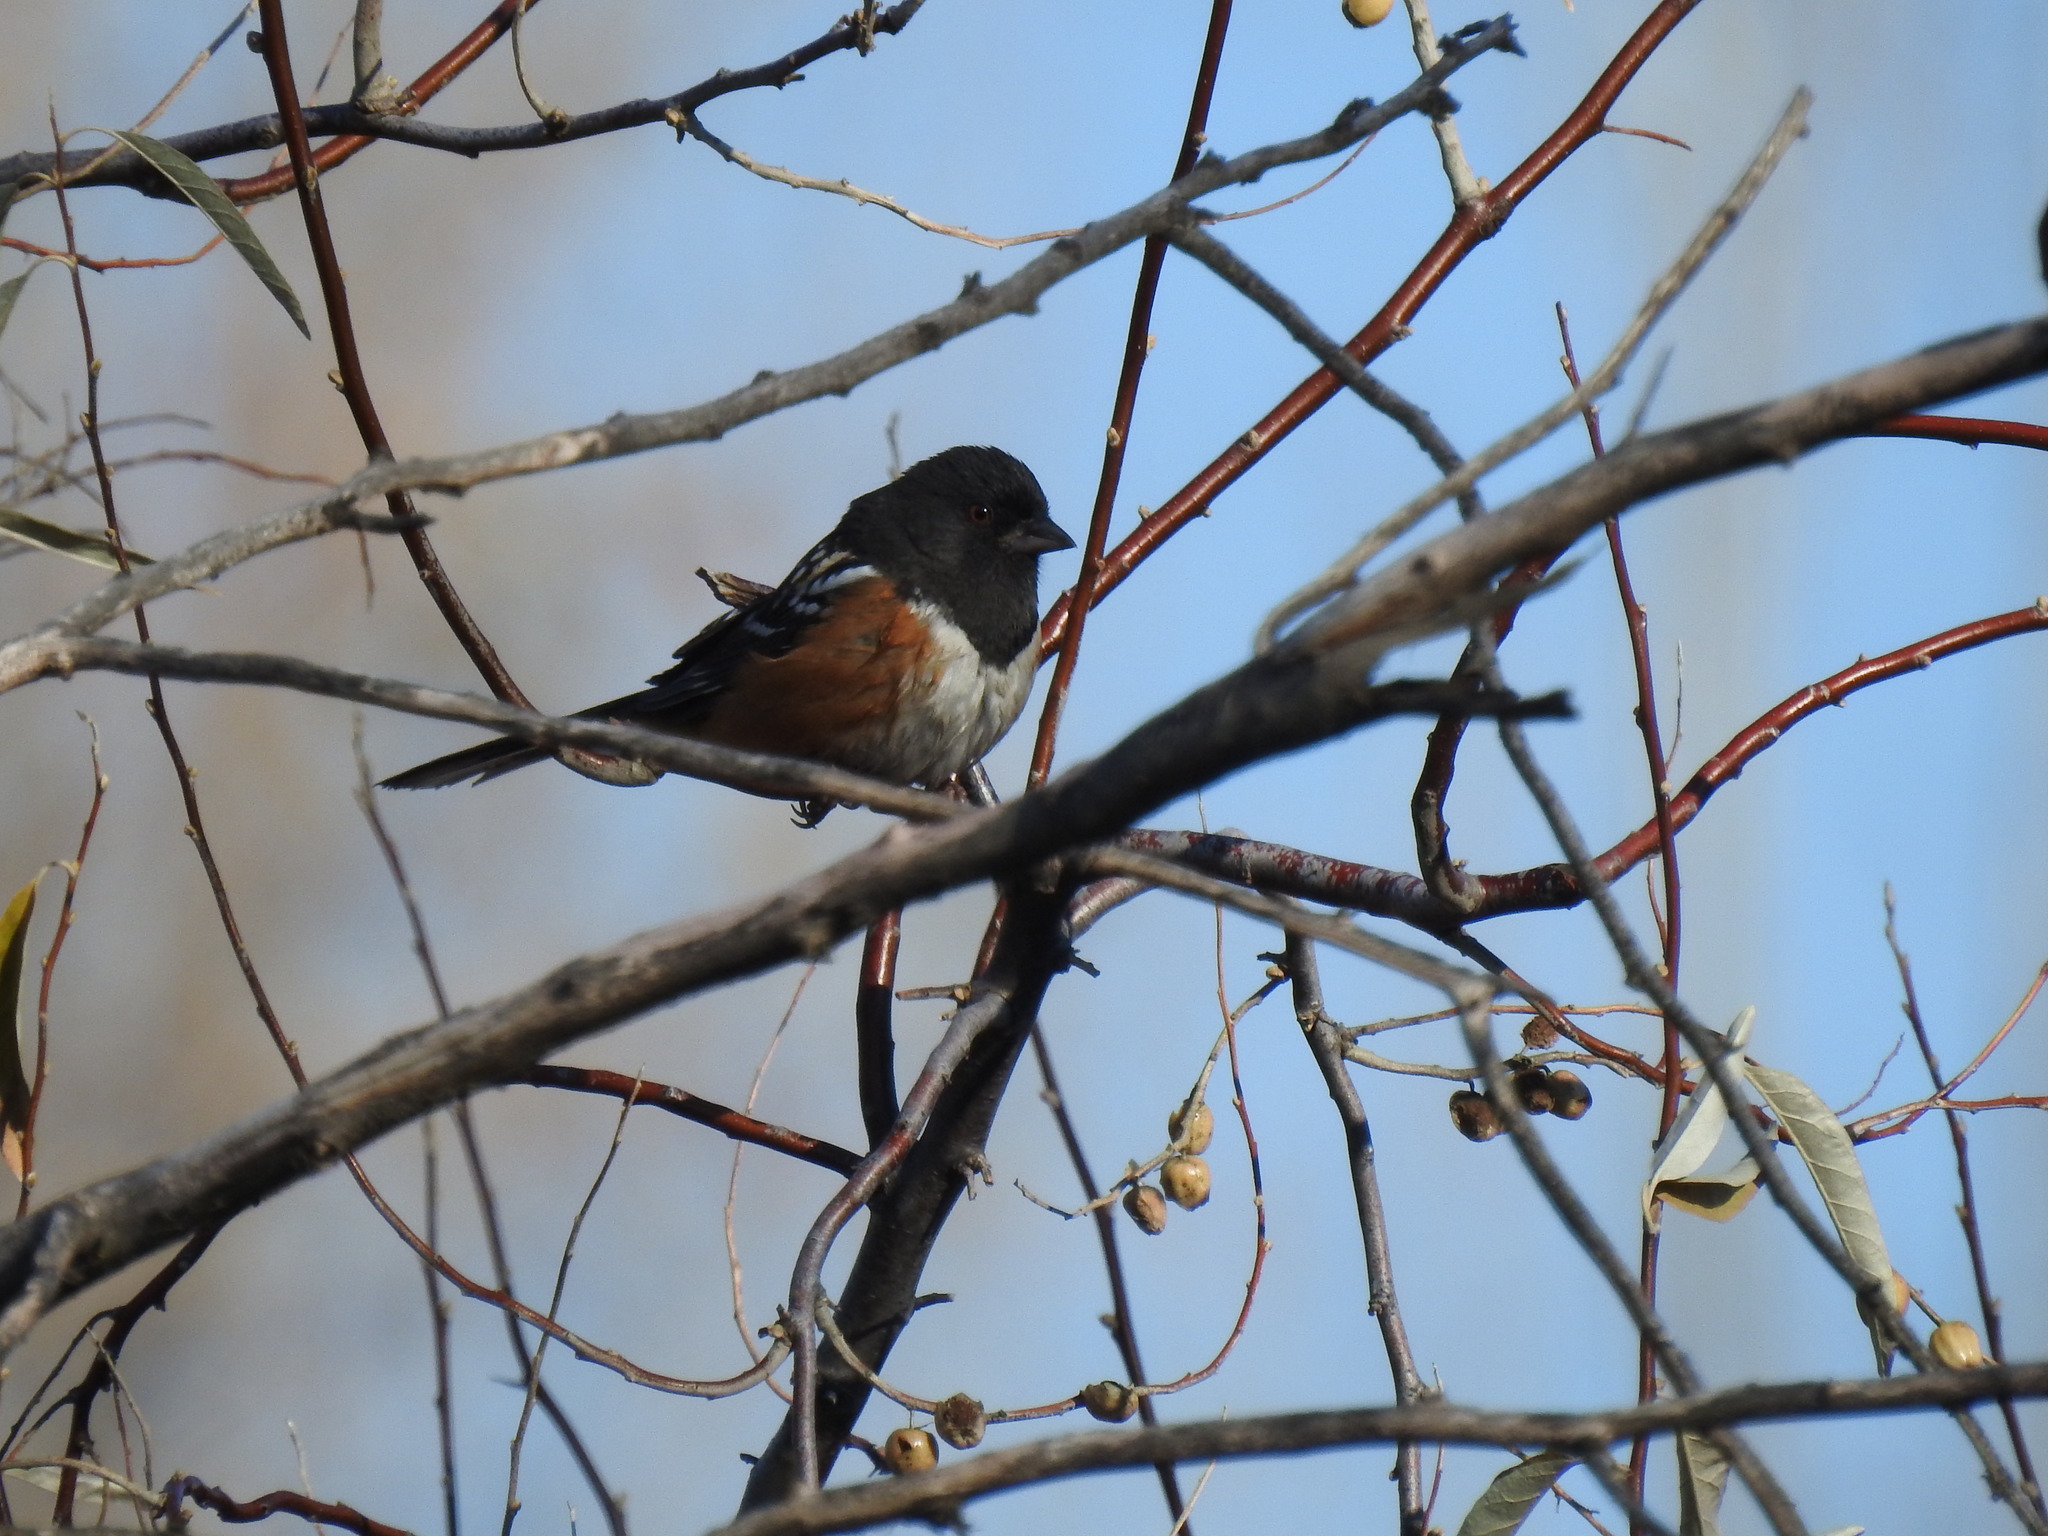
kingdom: Animalia
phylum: Chordata
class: Aves
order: Passeriformes
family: Passerellidae
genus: Pipilo
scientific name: Pipilo maculatus
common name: Spotted towhee
